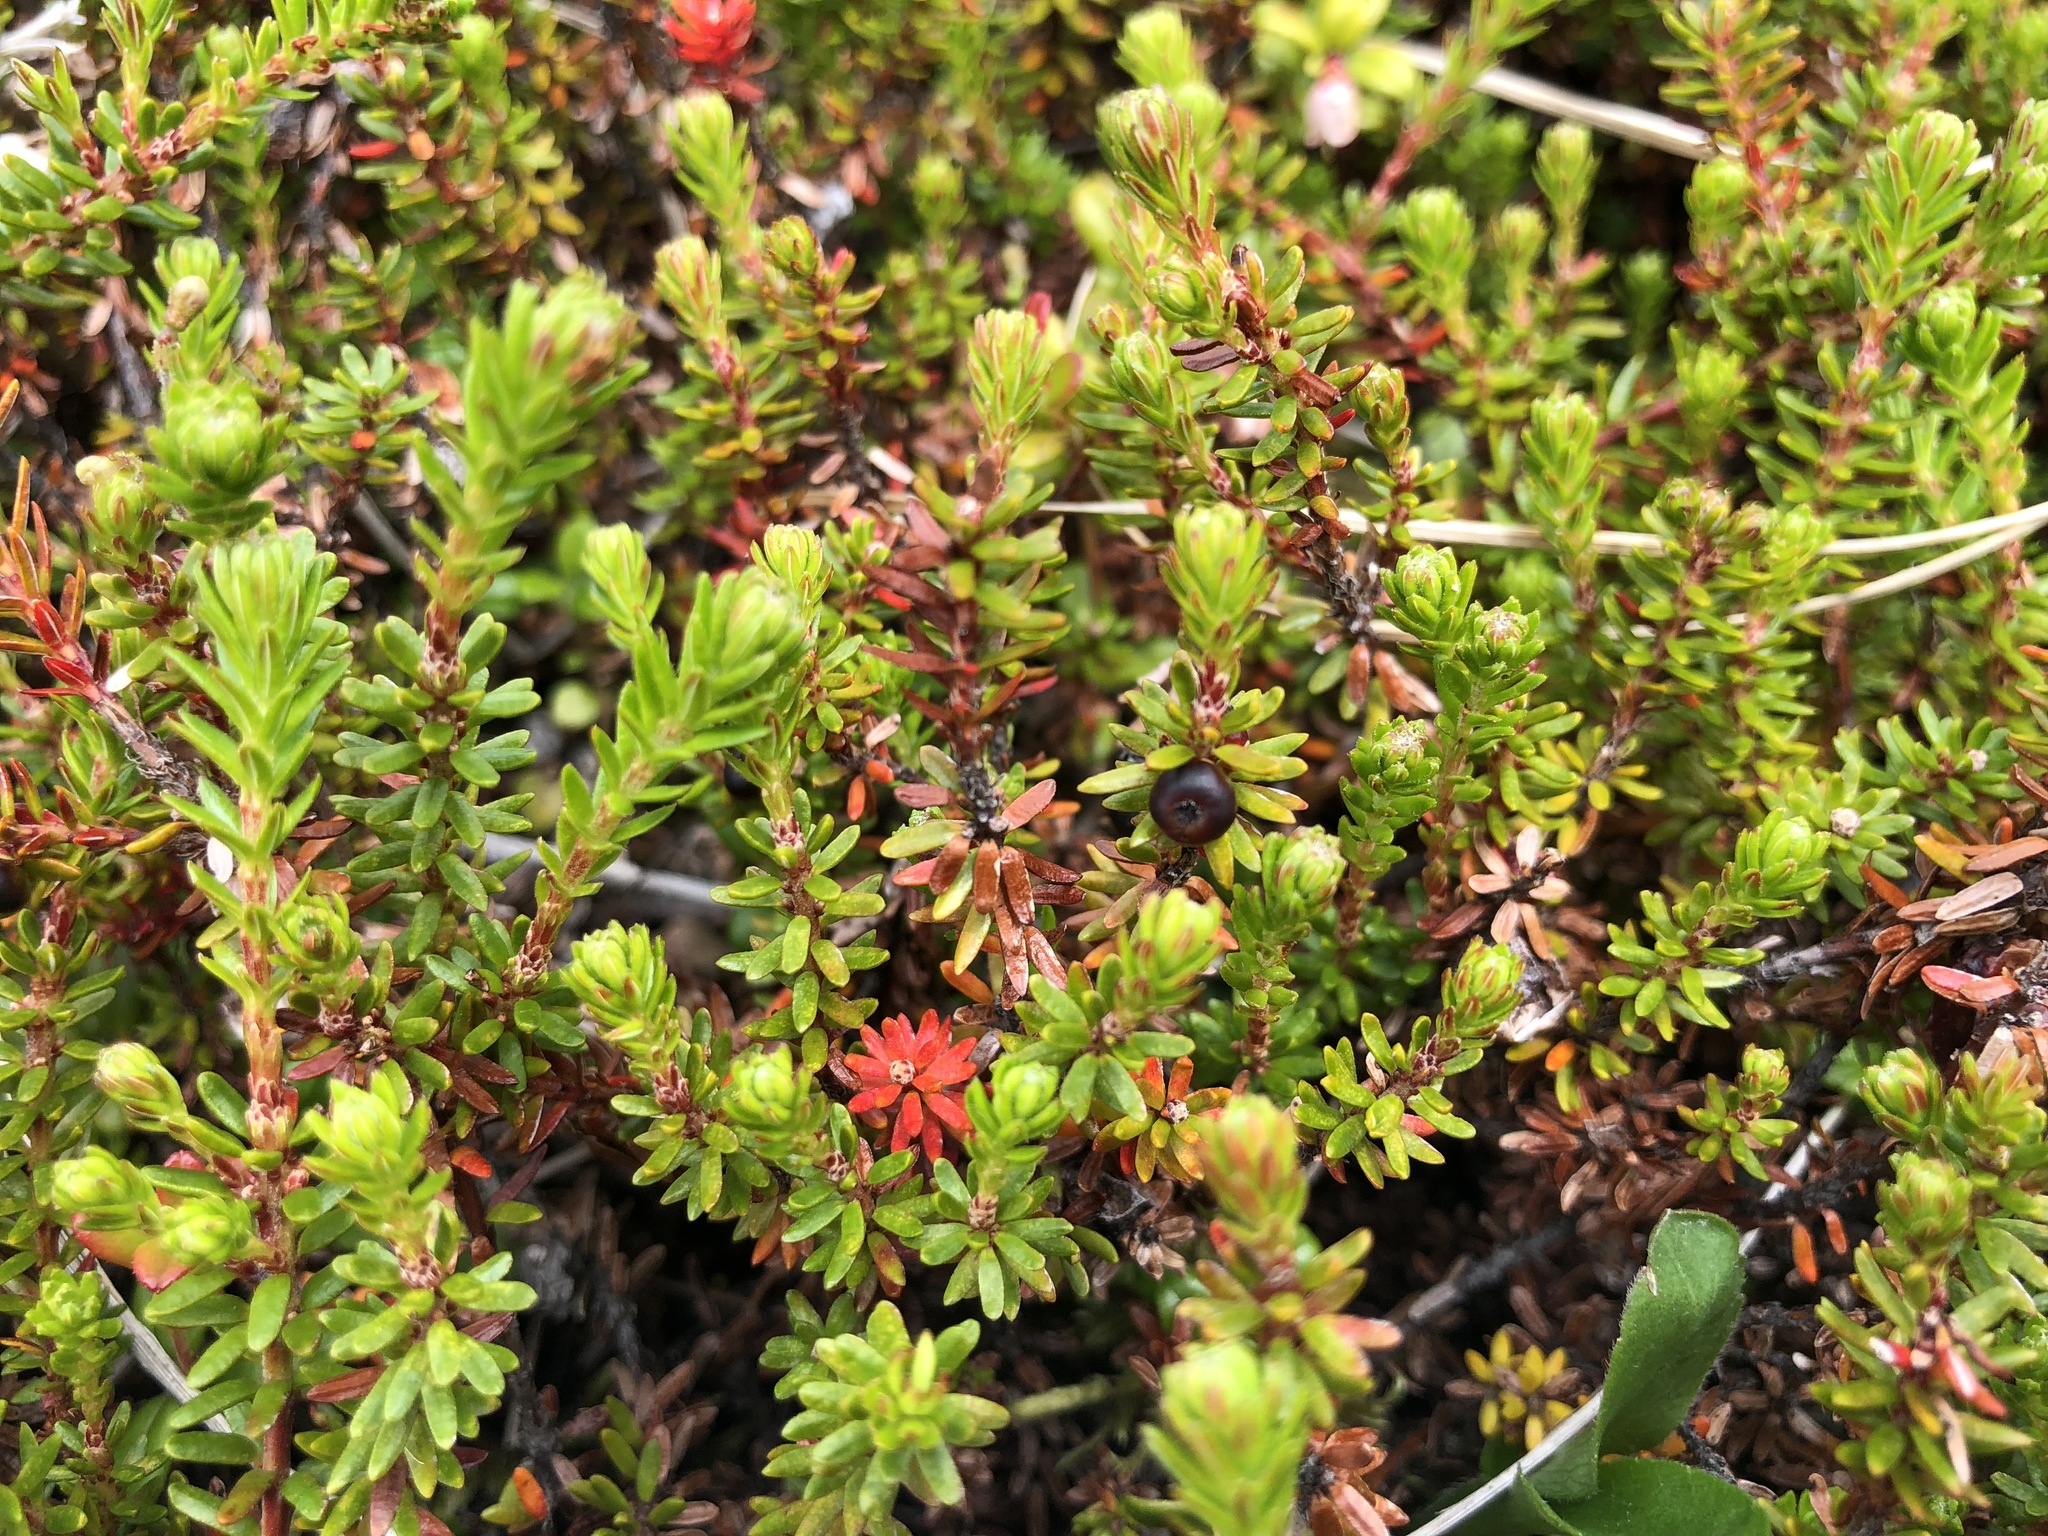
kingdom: Plantae
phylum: Tracheophyta
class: Magnoliopsida
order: Ericales
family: Ericaceae
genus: Empetrum
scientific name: Empetrum nigrum
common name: Black crowberry
